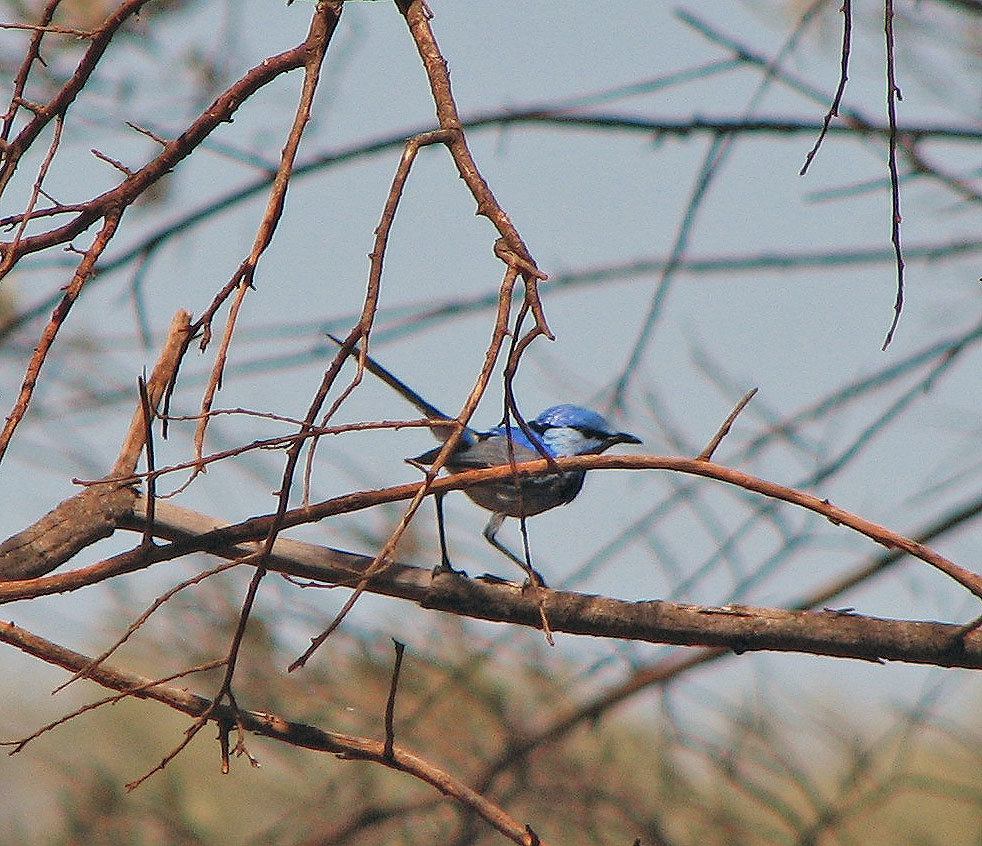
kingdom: Animalia
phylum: Chordata
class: Aves
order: Passeriformes
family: Maluridae
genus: Malurus
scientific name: Malurus splendens
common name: Splendid fairywren
